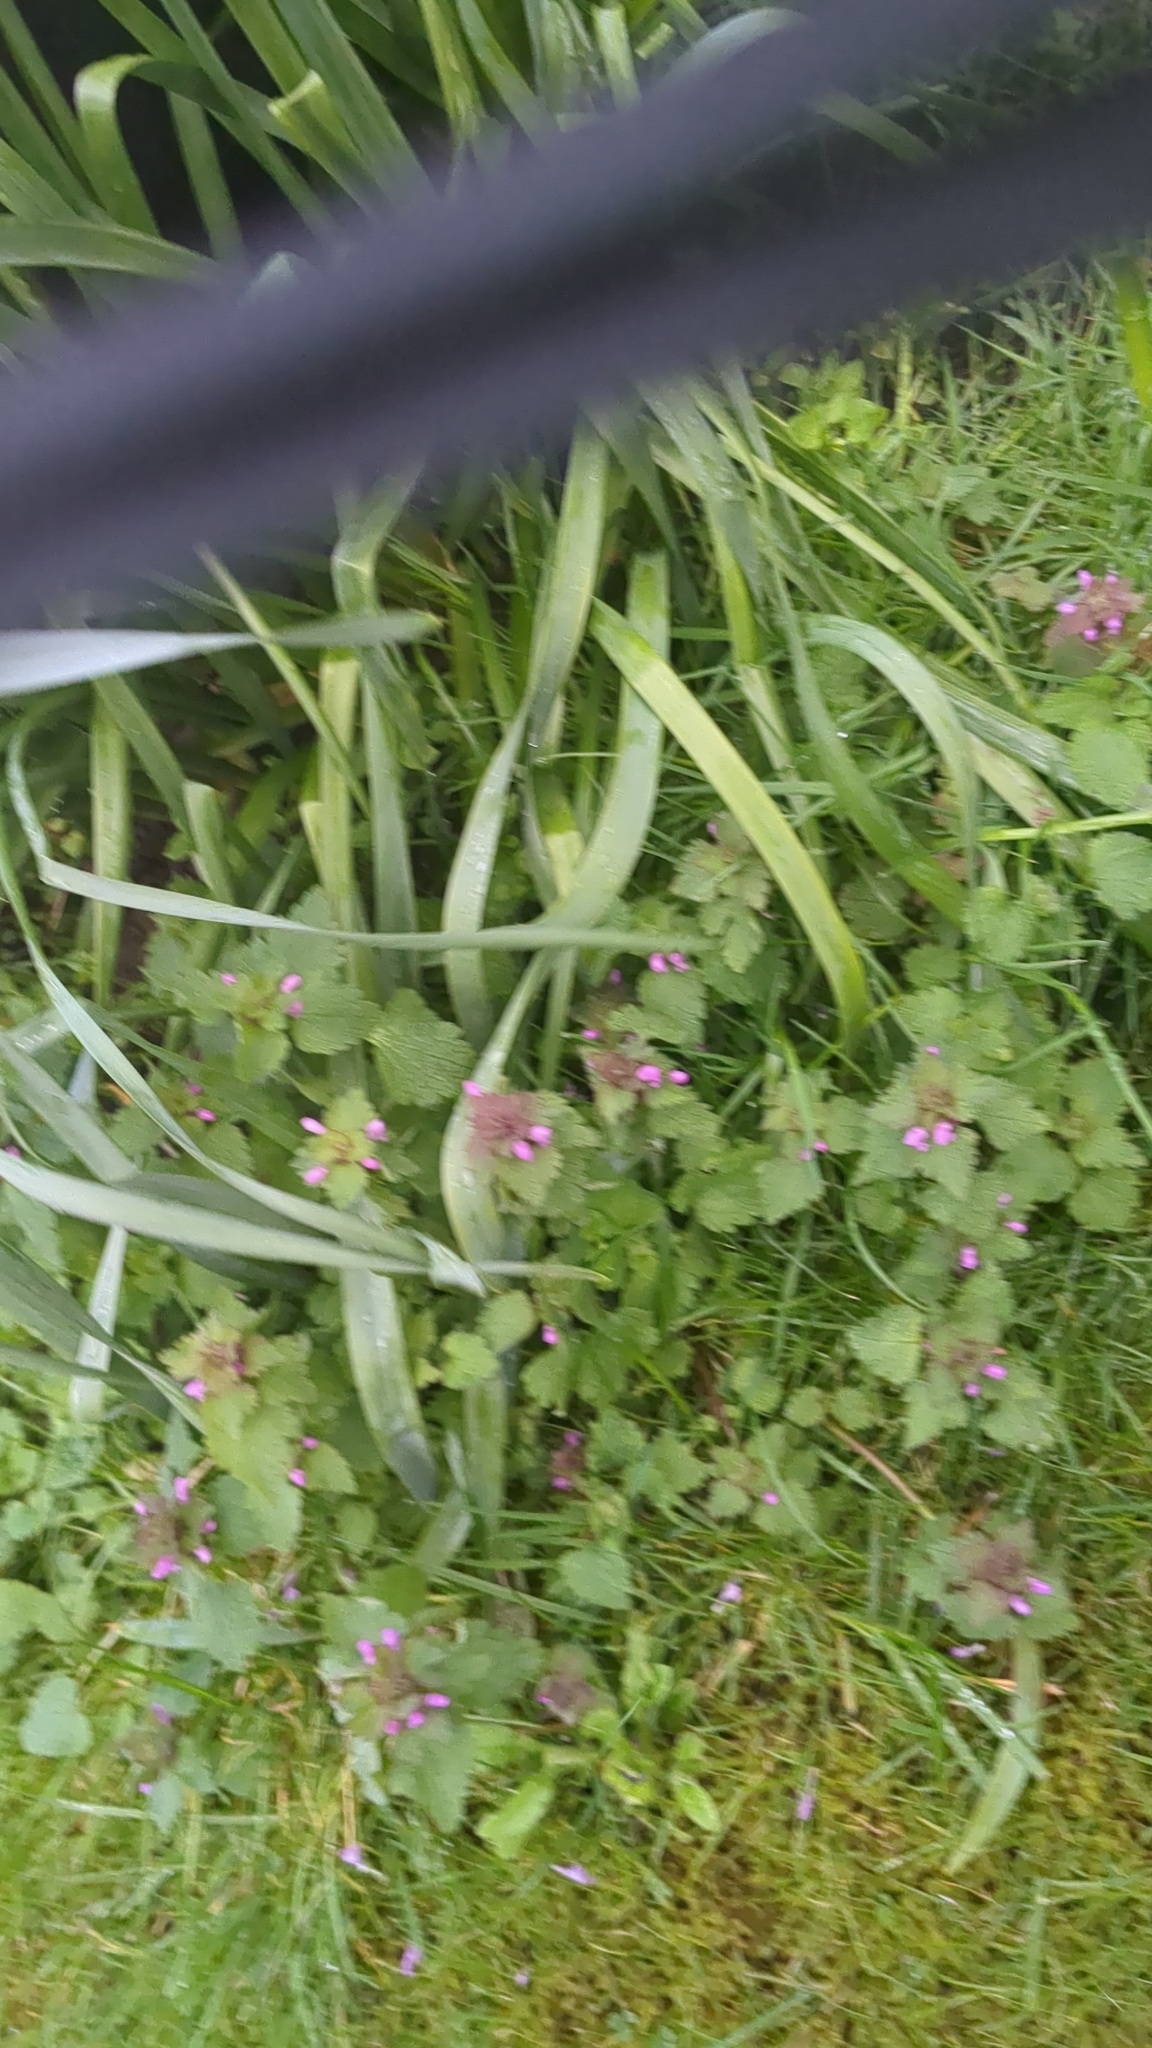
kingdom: Plantae
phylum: Tracheophyta
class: Magnoliopsida
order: Lamiales
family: Lamiaceae
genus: Lamium
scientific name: Lamium purpureum
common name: Red dead-nettle
